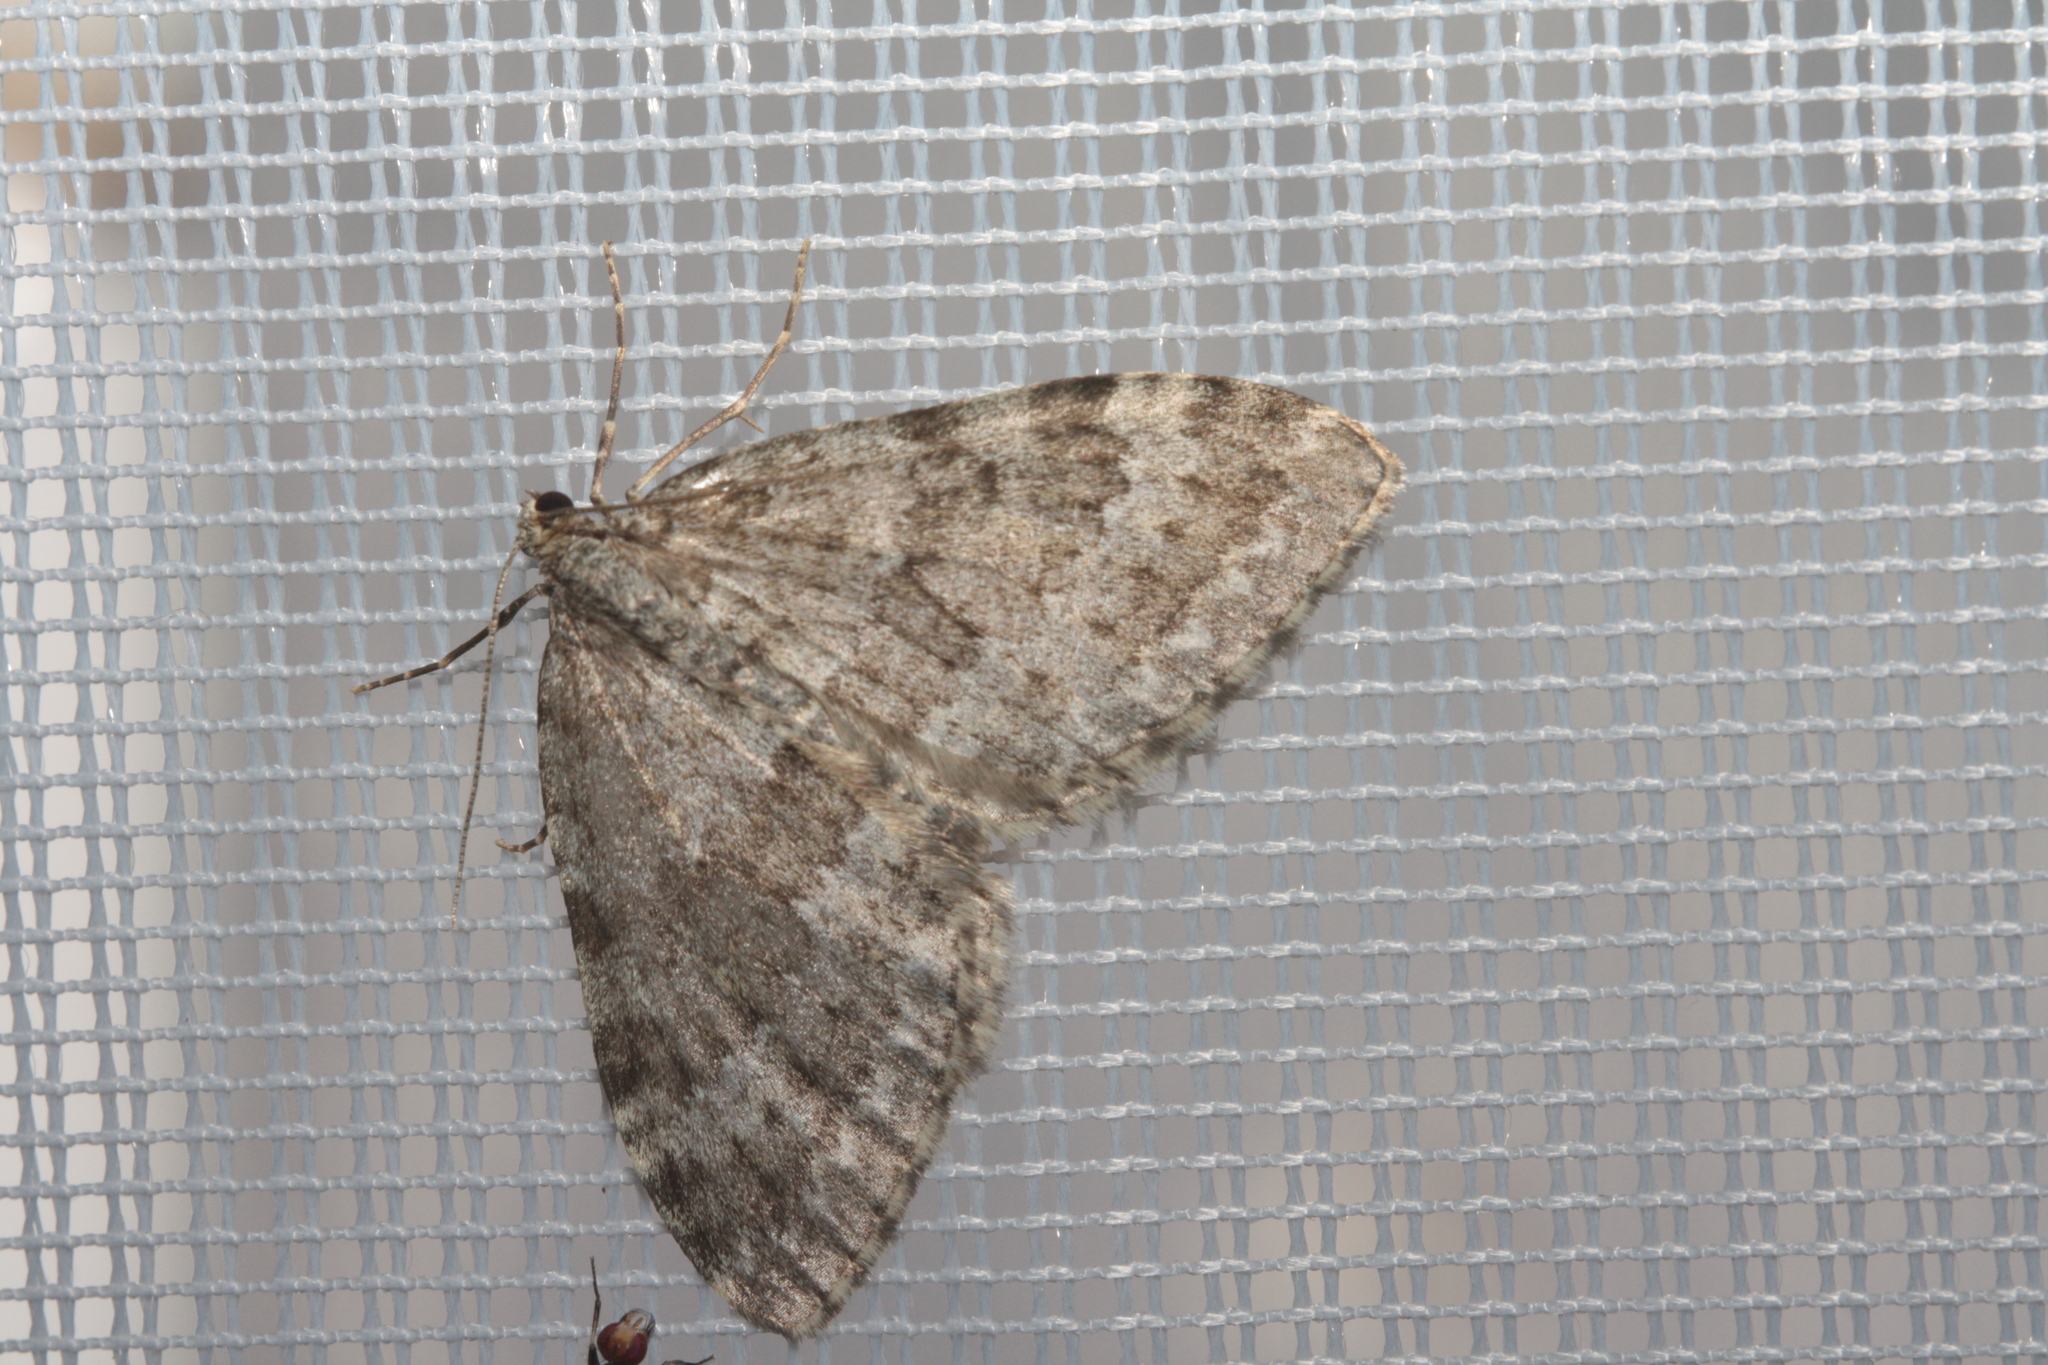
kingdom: Animalia
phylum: Arthropoda
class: Insecta
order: Lepidoptera
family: Geometridae
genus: Entephria
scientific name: Entephria caesiata
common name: Grey mountain moth
